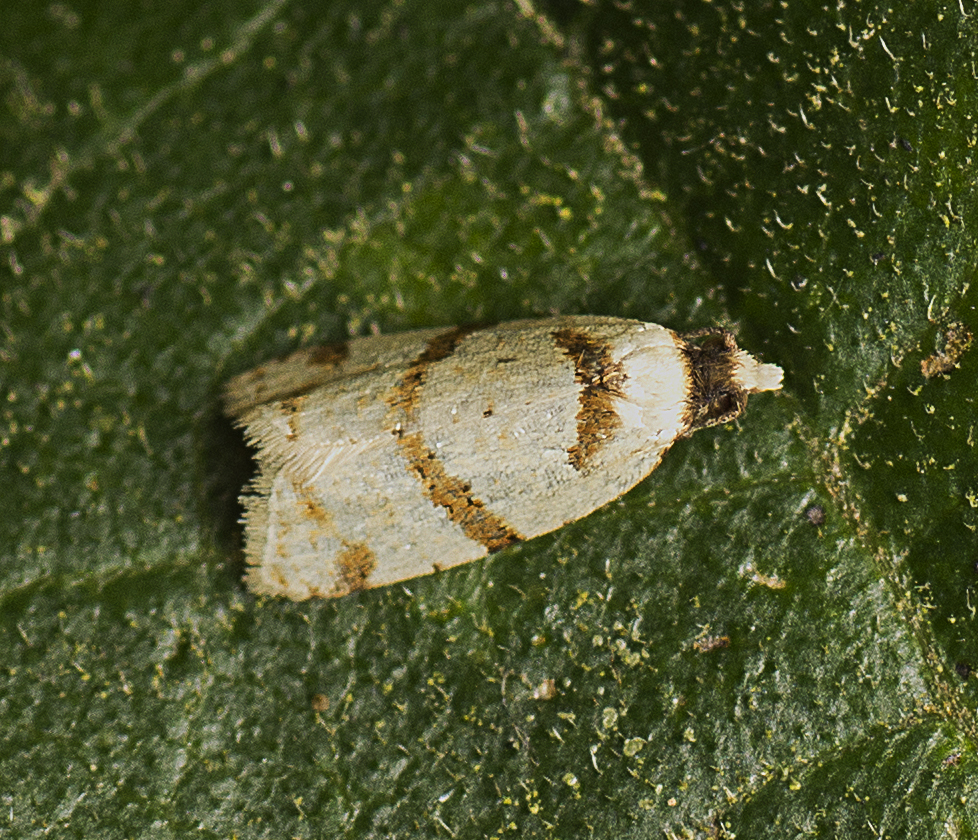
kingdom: Animalia
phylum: Arthropoda
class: Insecta
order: Lepidoptera
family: Tortricidae
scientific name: Tortricidae
